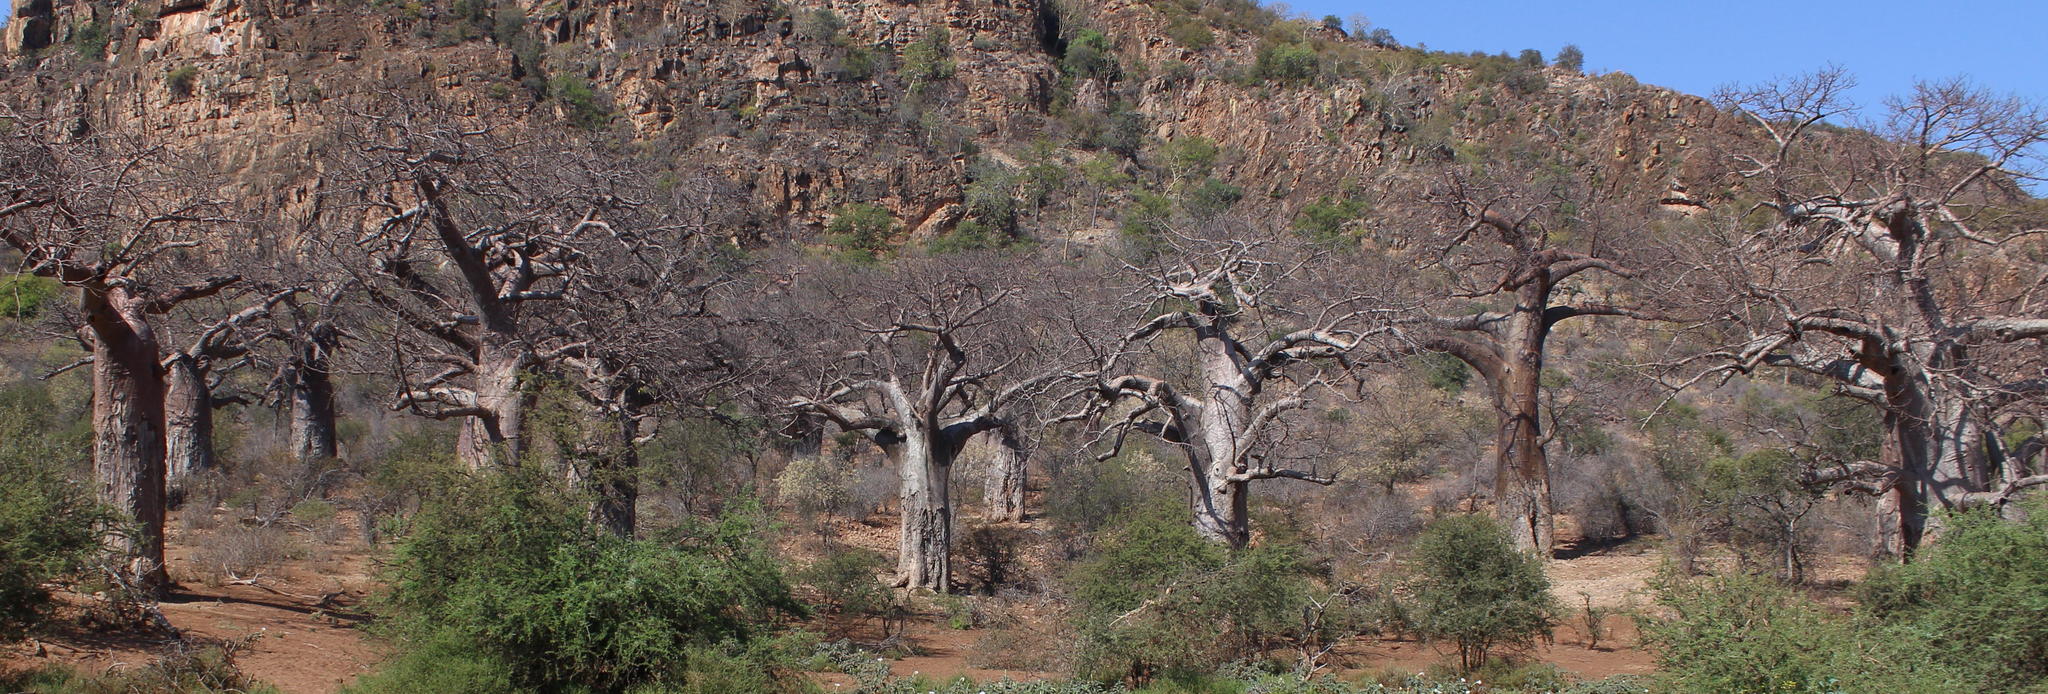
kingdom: Plantae
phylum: Tracheophyta
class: Magnoliopsida
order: Malvales
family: Malvaceae
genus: Adansonia
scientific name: Adansonia digitata
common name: Dead-rat-tree
